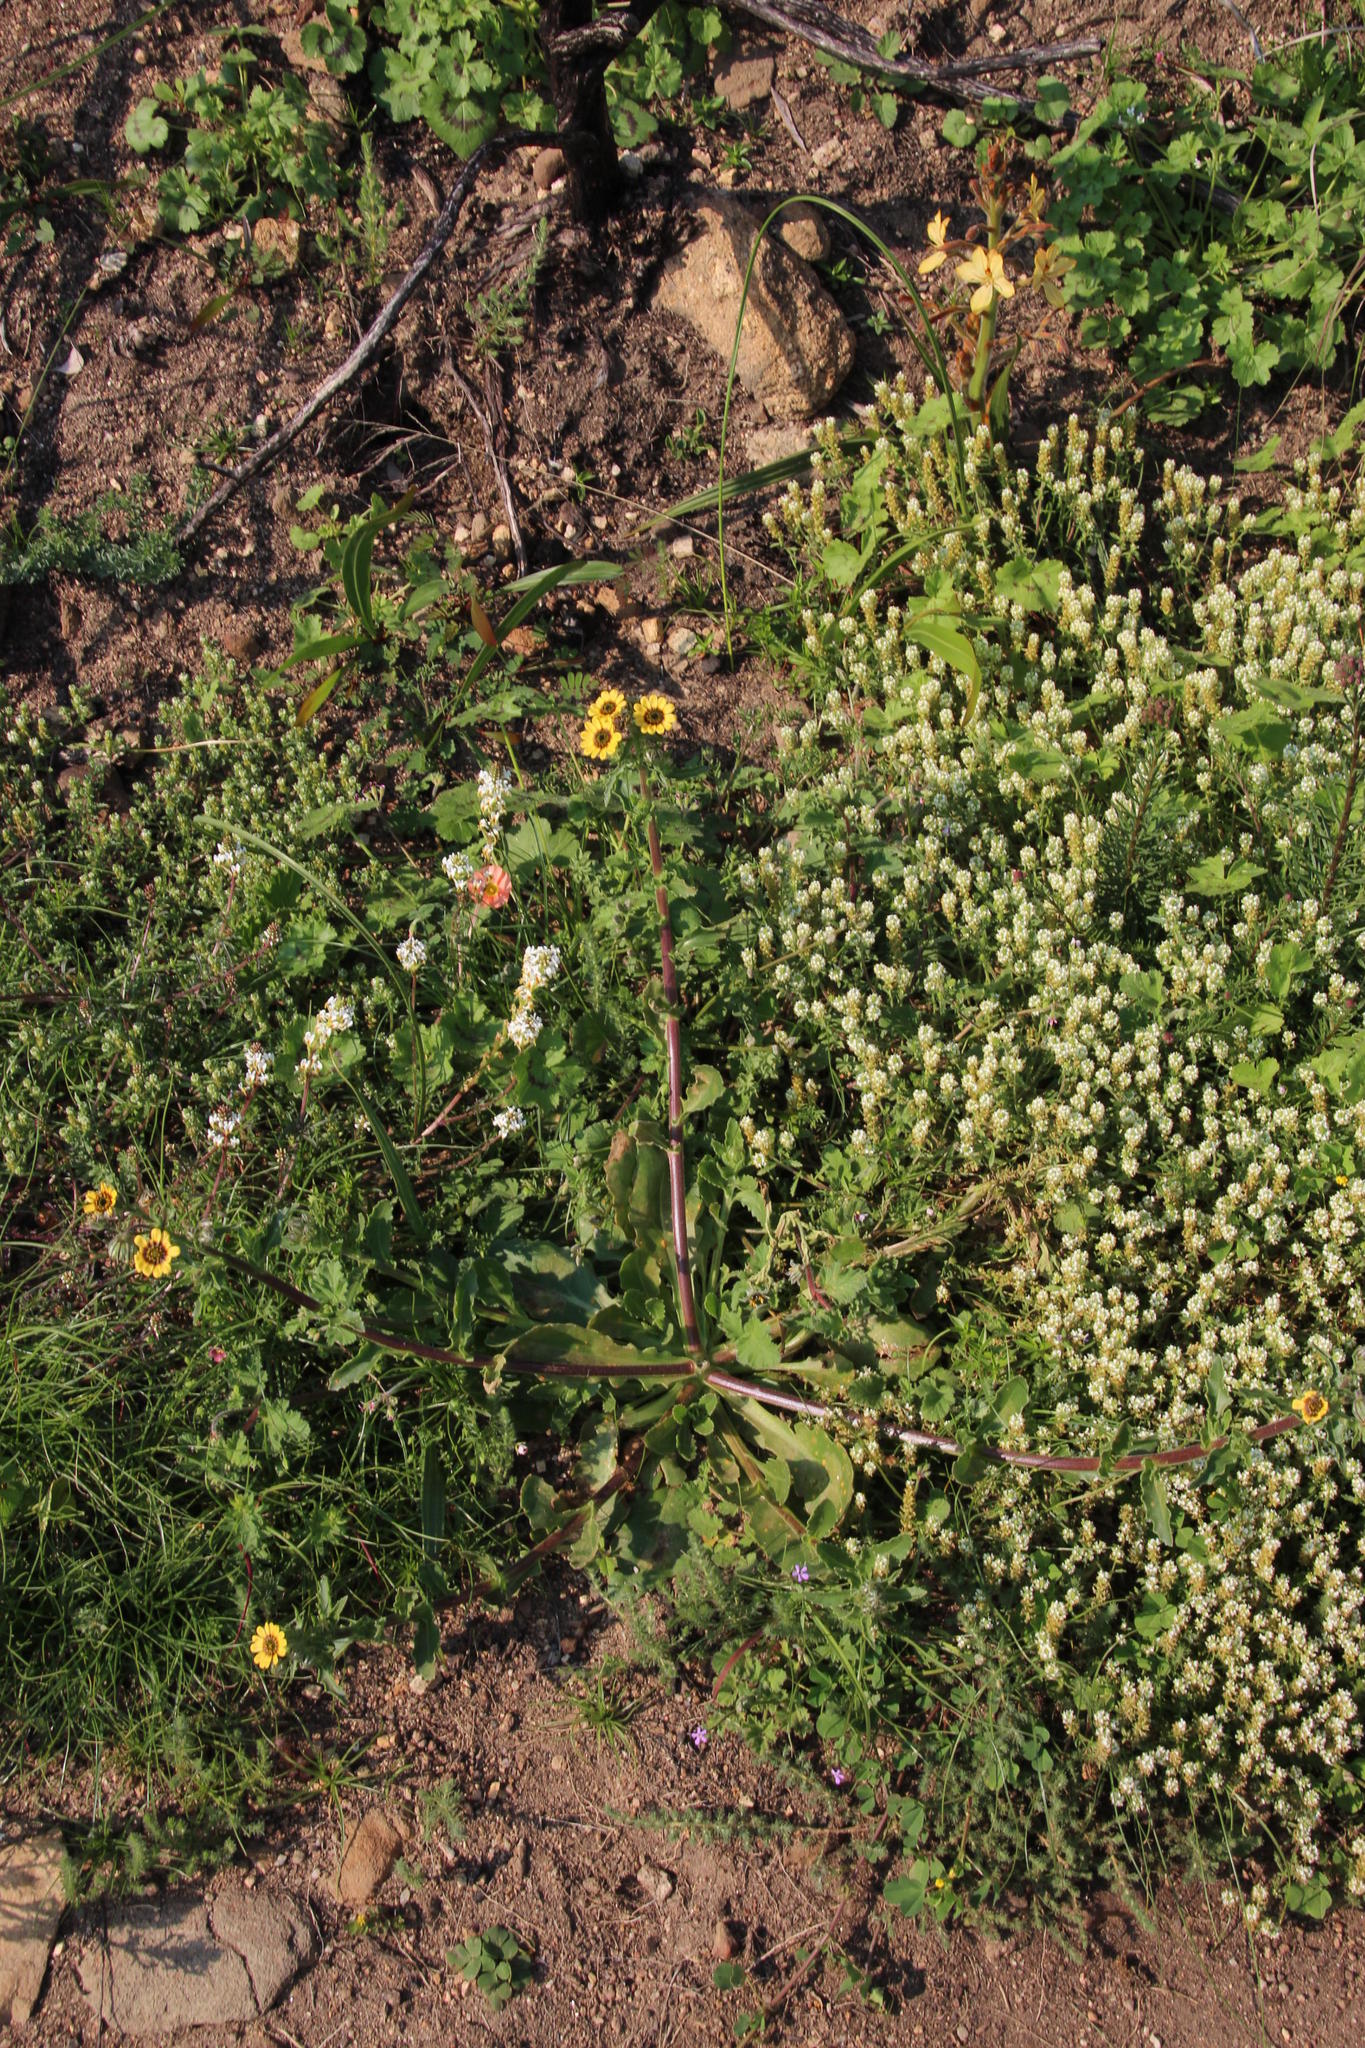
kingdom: Plantae
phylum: Tracheophyta
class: Magnoliopsida
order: Asterales
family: Asteraceae
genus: Osteospermum
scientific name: Osteospermum monstrosum
